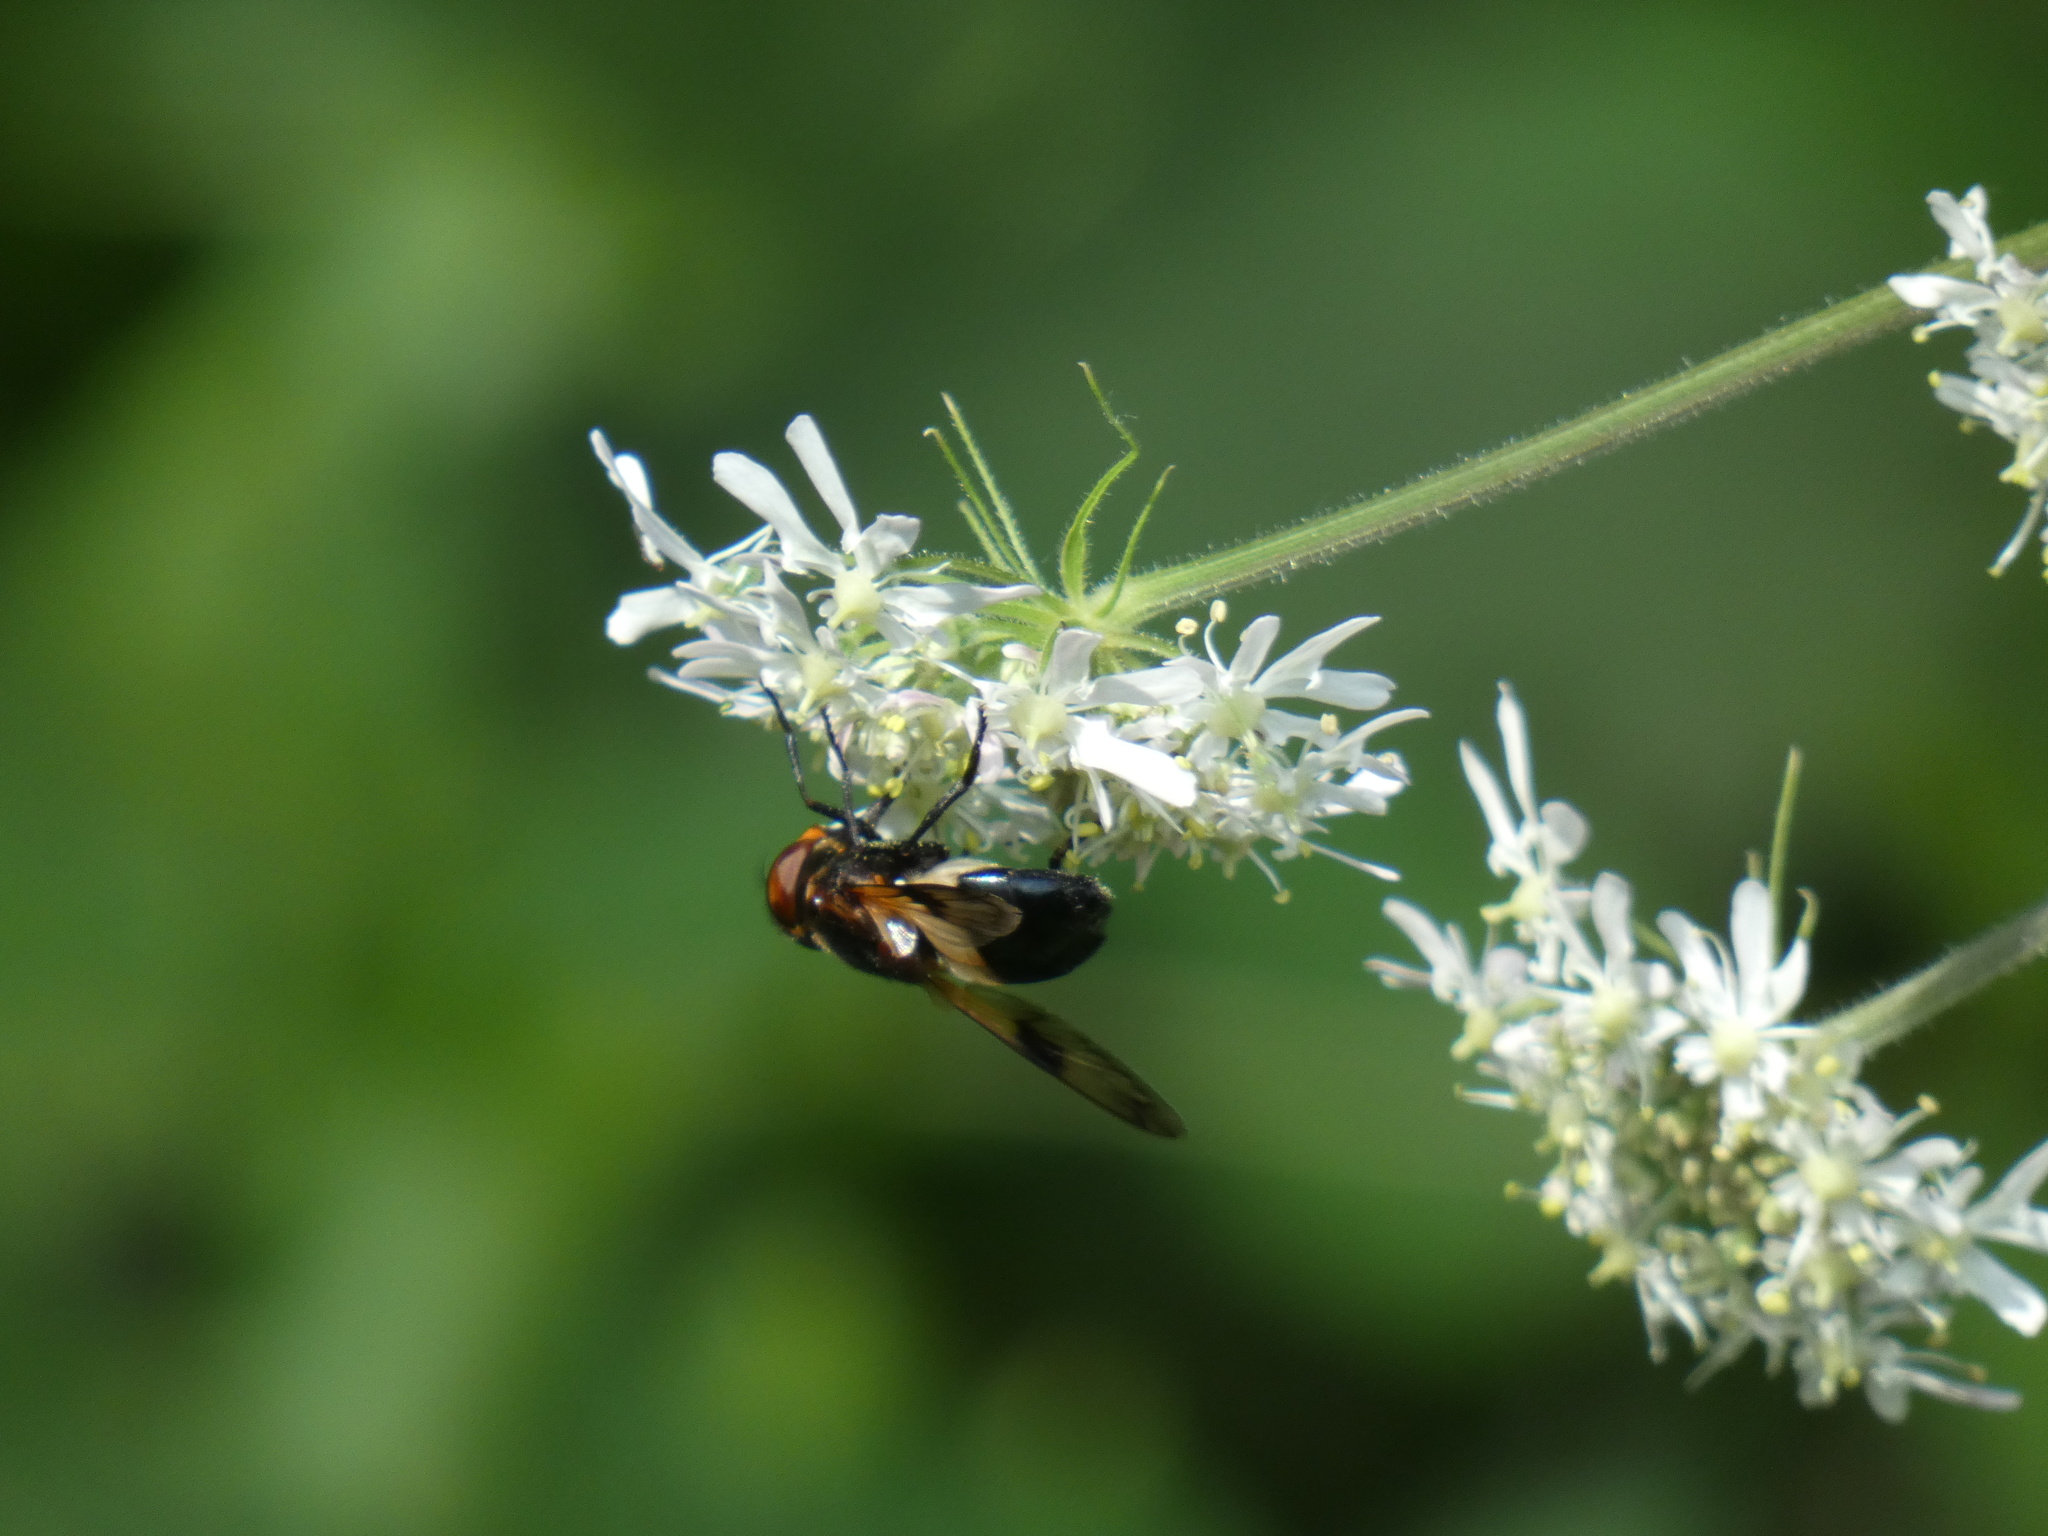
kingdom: Animalia
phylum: Arthropoda
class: Insecta
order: Diptera
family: Syrphidae
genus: Volucella
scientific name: Volucella pellucens
